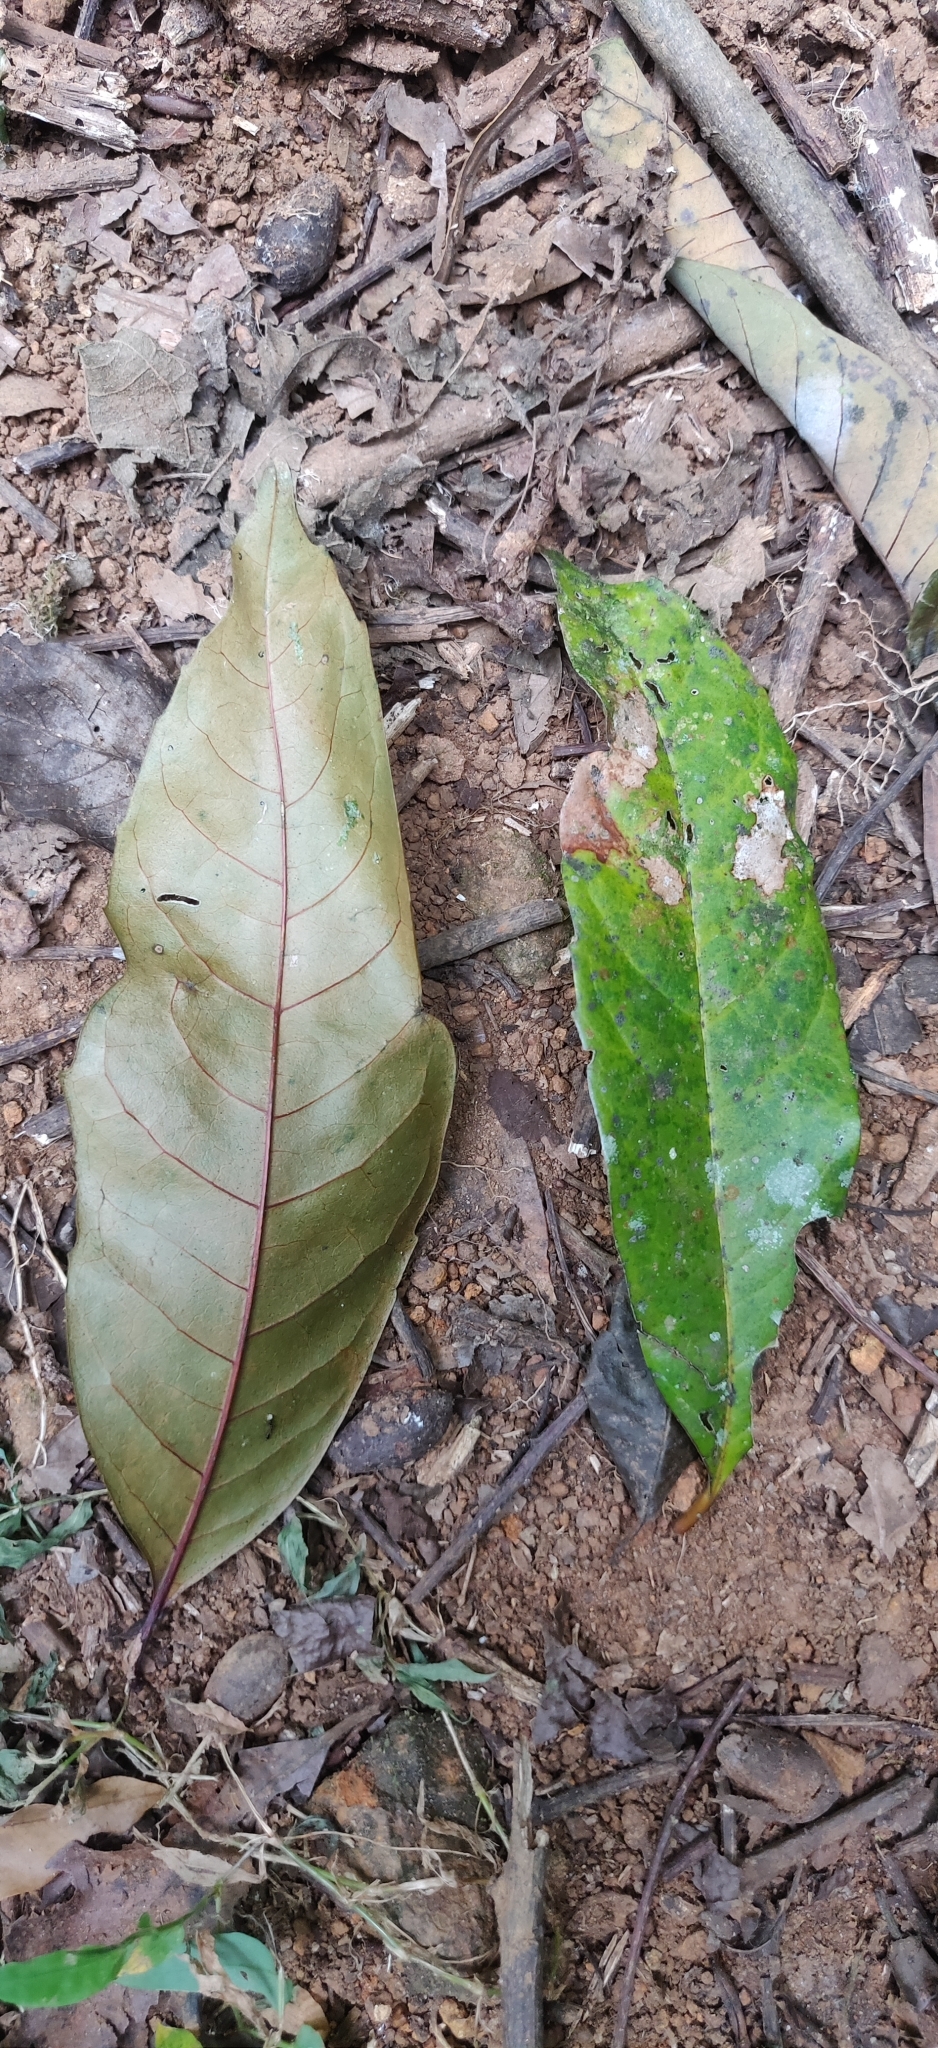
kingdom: Plantae
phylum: Tracheophyta
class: Magnoliopsida
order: Lamiales
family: Oleaceae
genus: Tetrapilus
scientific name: Tetrapilus dioicus
